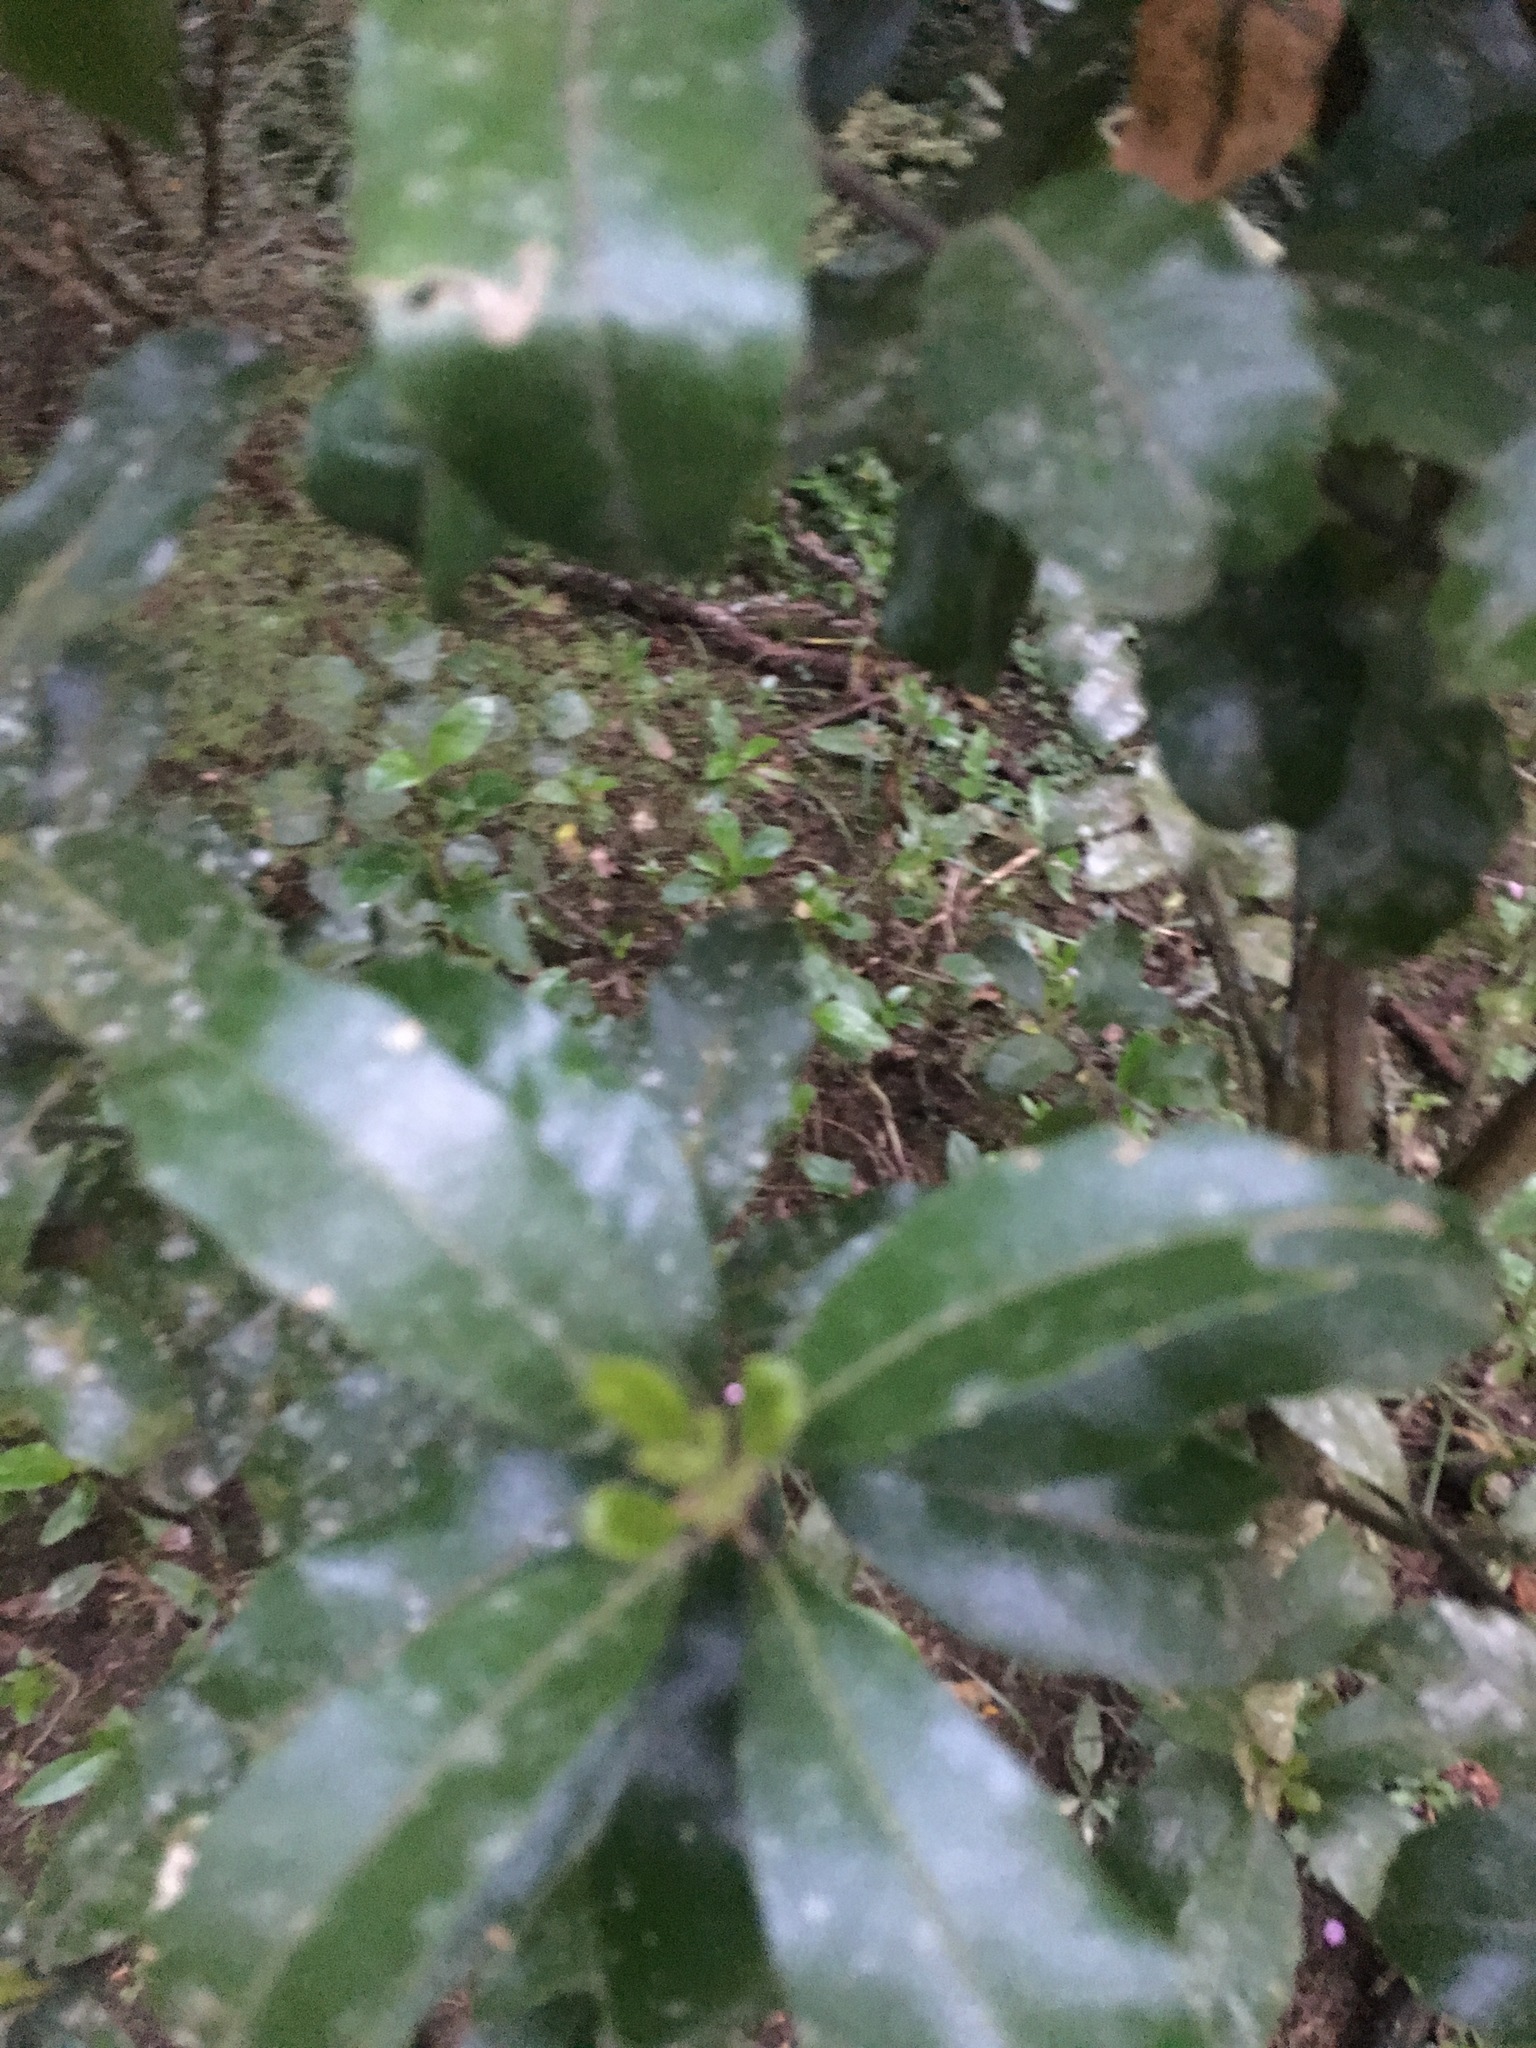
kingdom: Plantae
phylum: Tracheophyta
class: Magnoliopsida
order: Laurales
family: Monimiaceae
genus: Hedycarya
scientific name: Hedycarya arborea
